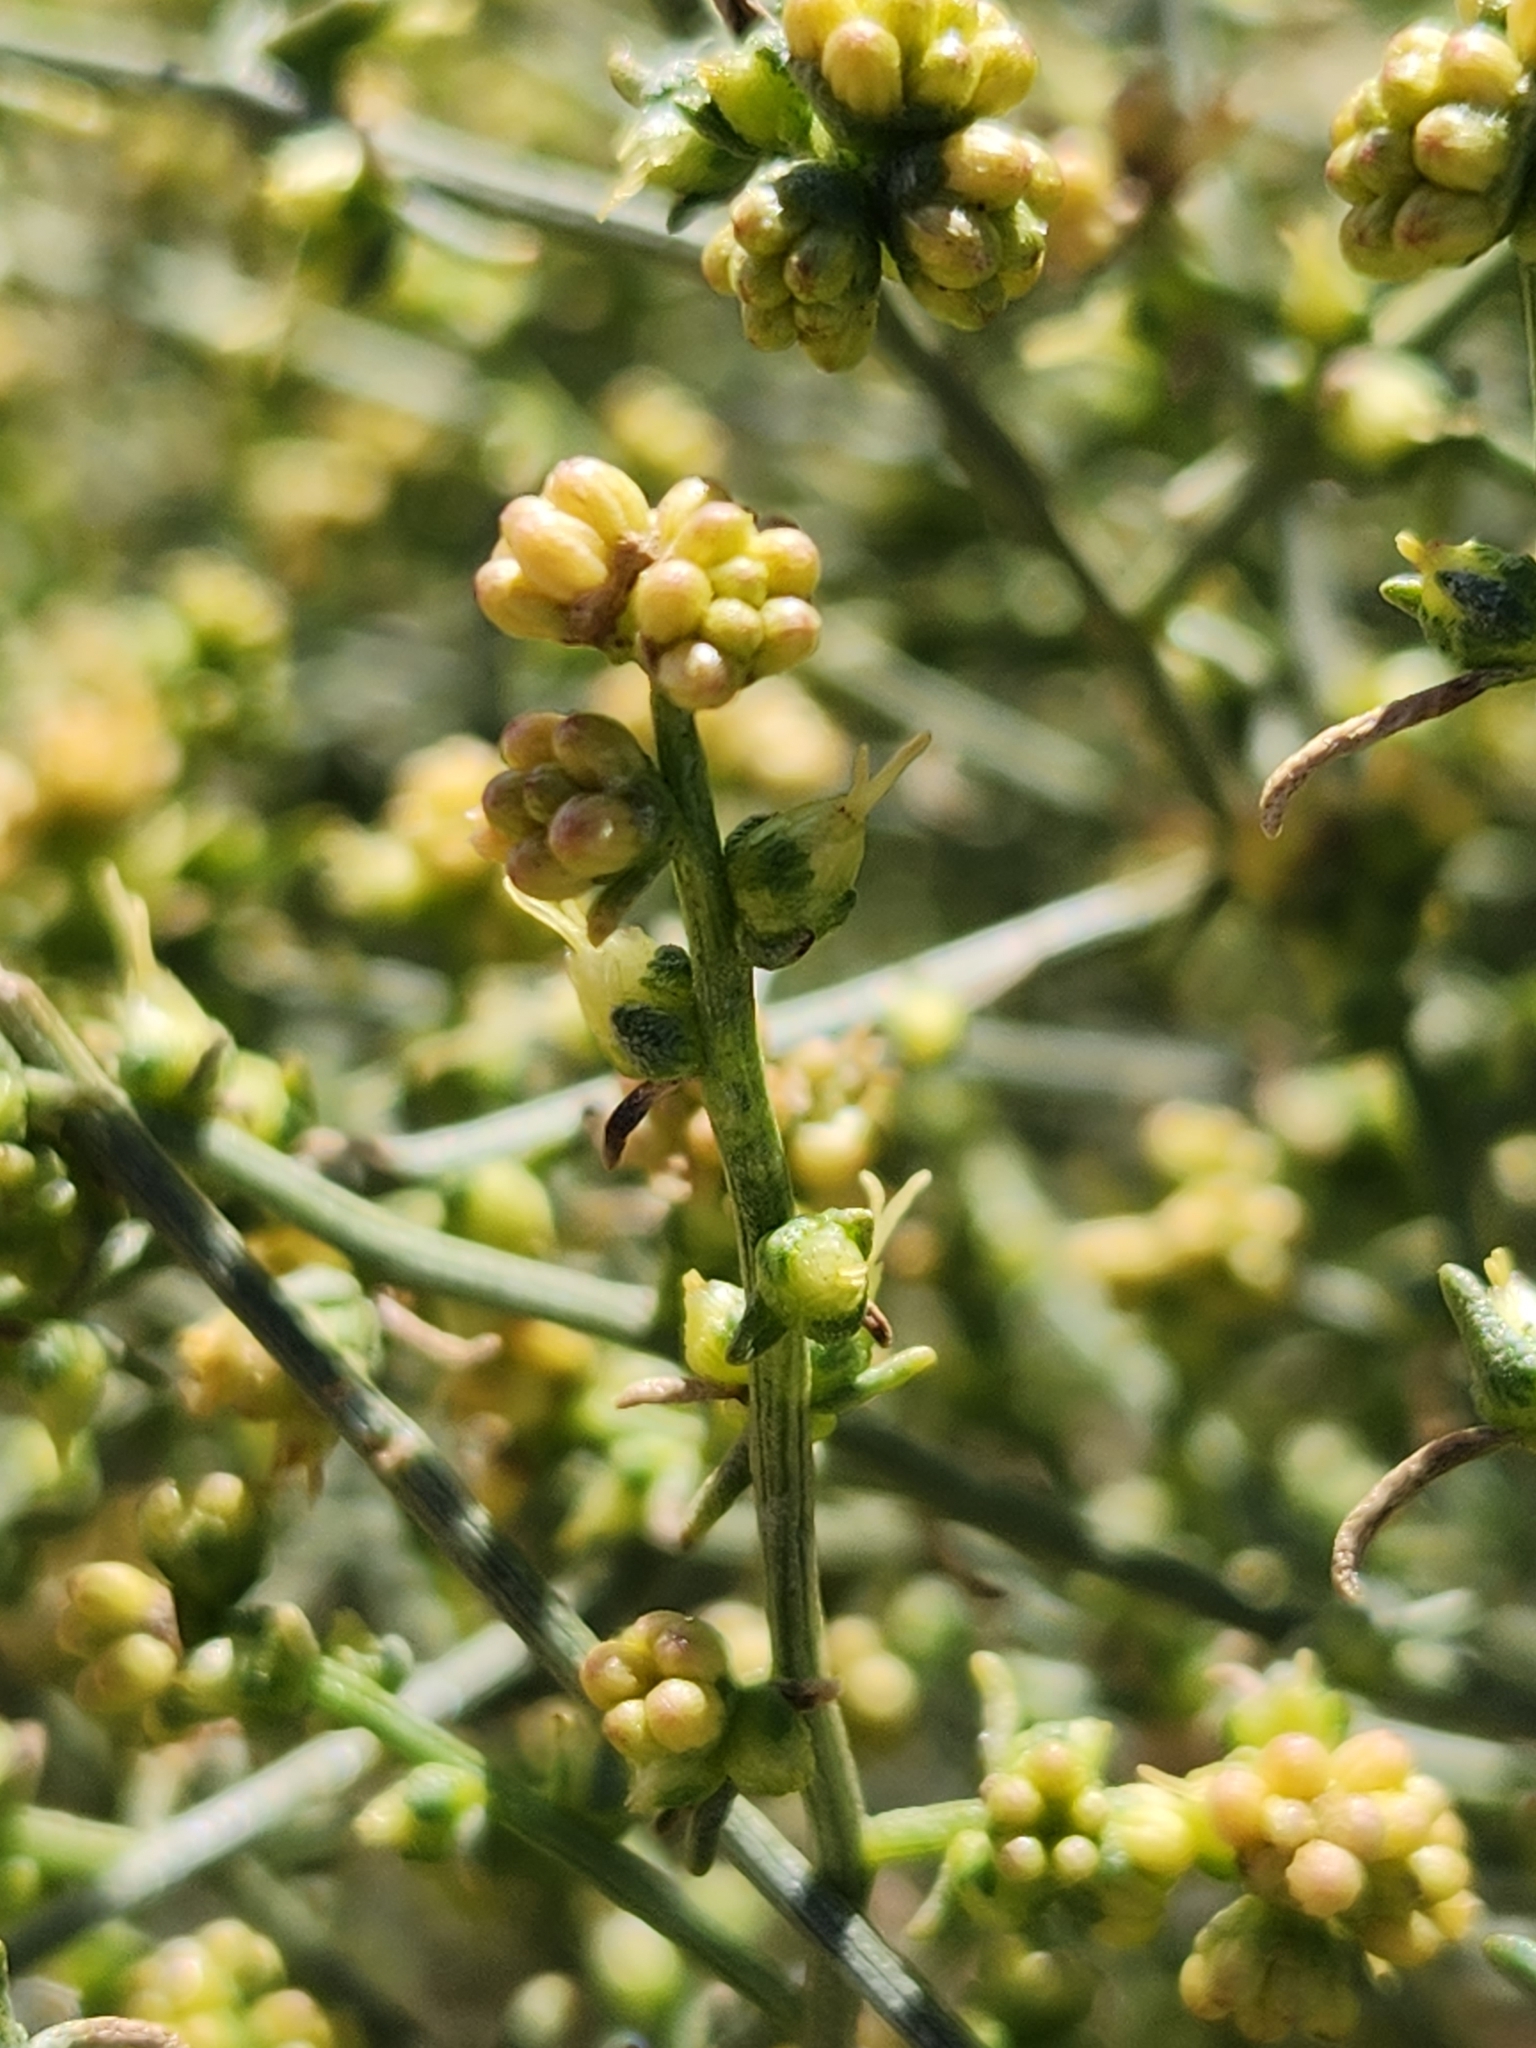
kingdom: Plantae
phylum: Tracheophyta
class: Magnoliopsida
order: Asterales
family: Asteraceae
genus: Ambrosia
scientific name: Ambrosia salsola
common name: Burrobrush
